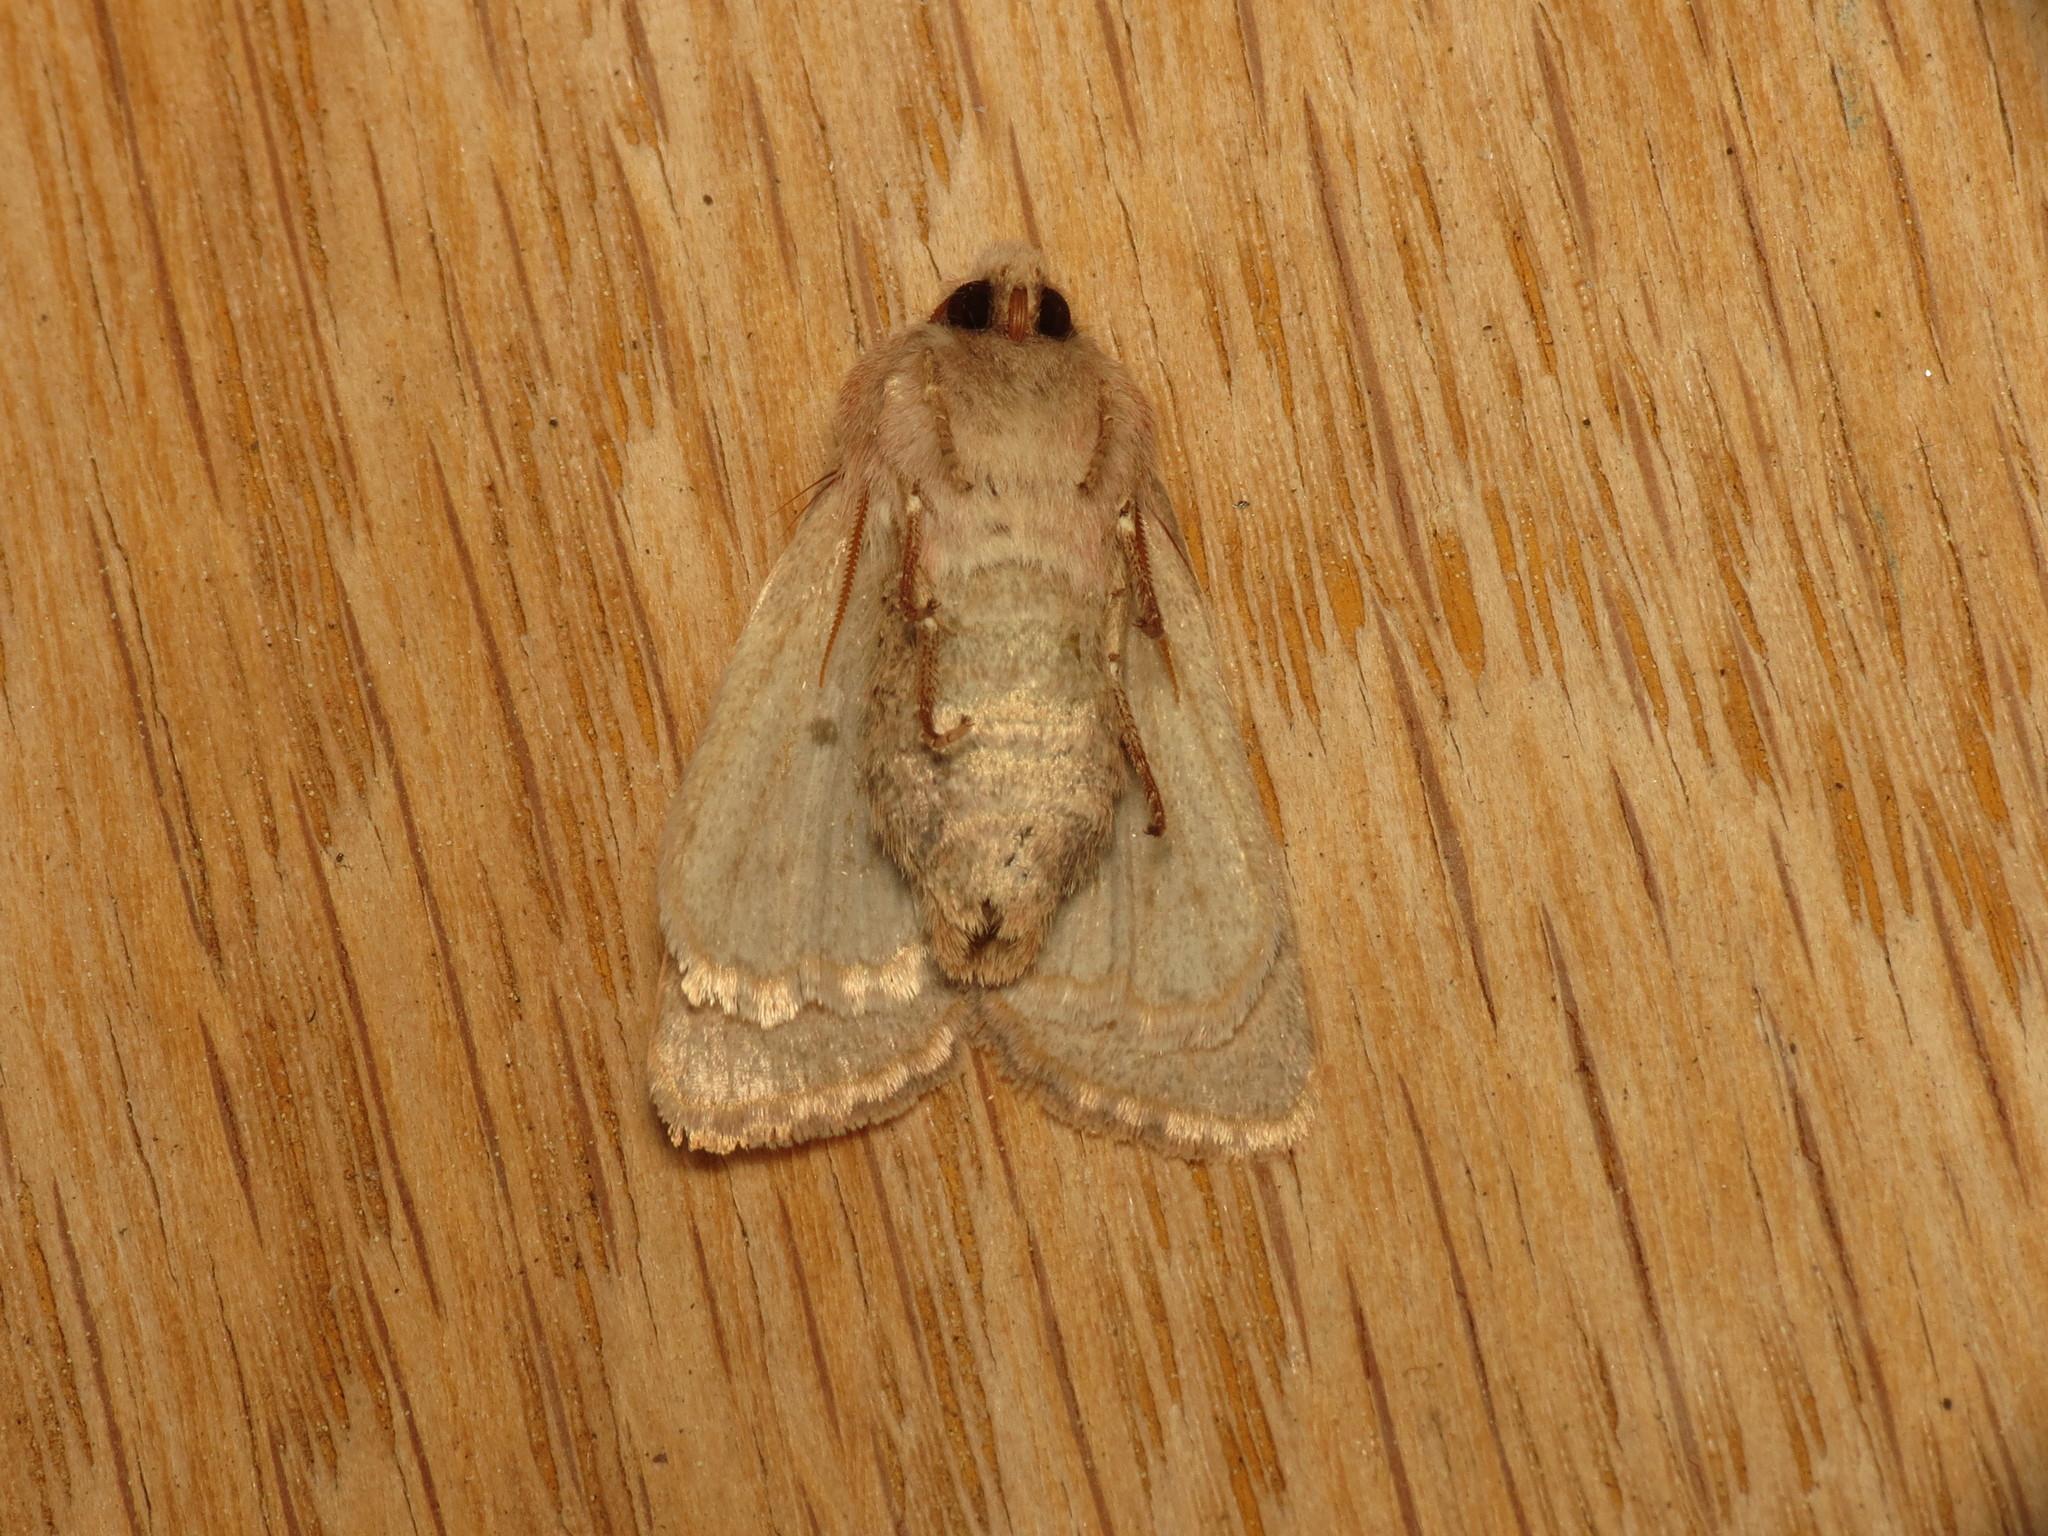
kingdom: Animalia
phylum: Arthropoda
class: Insecta
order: Lepidoptera
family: Noctuidae
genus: Orthosia
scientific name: Orthosia cerasi
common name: Common quaker
